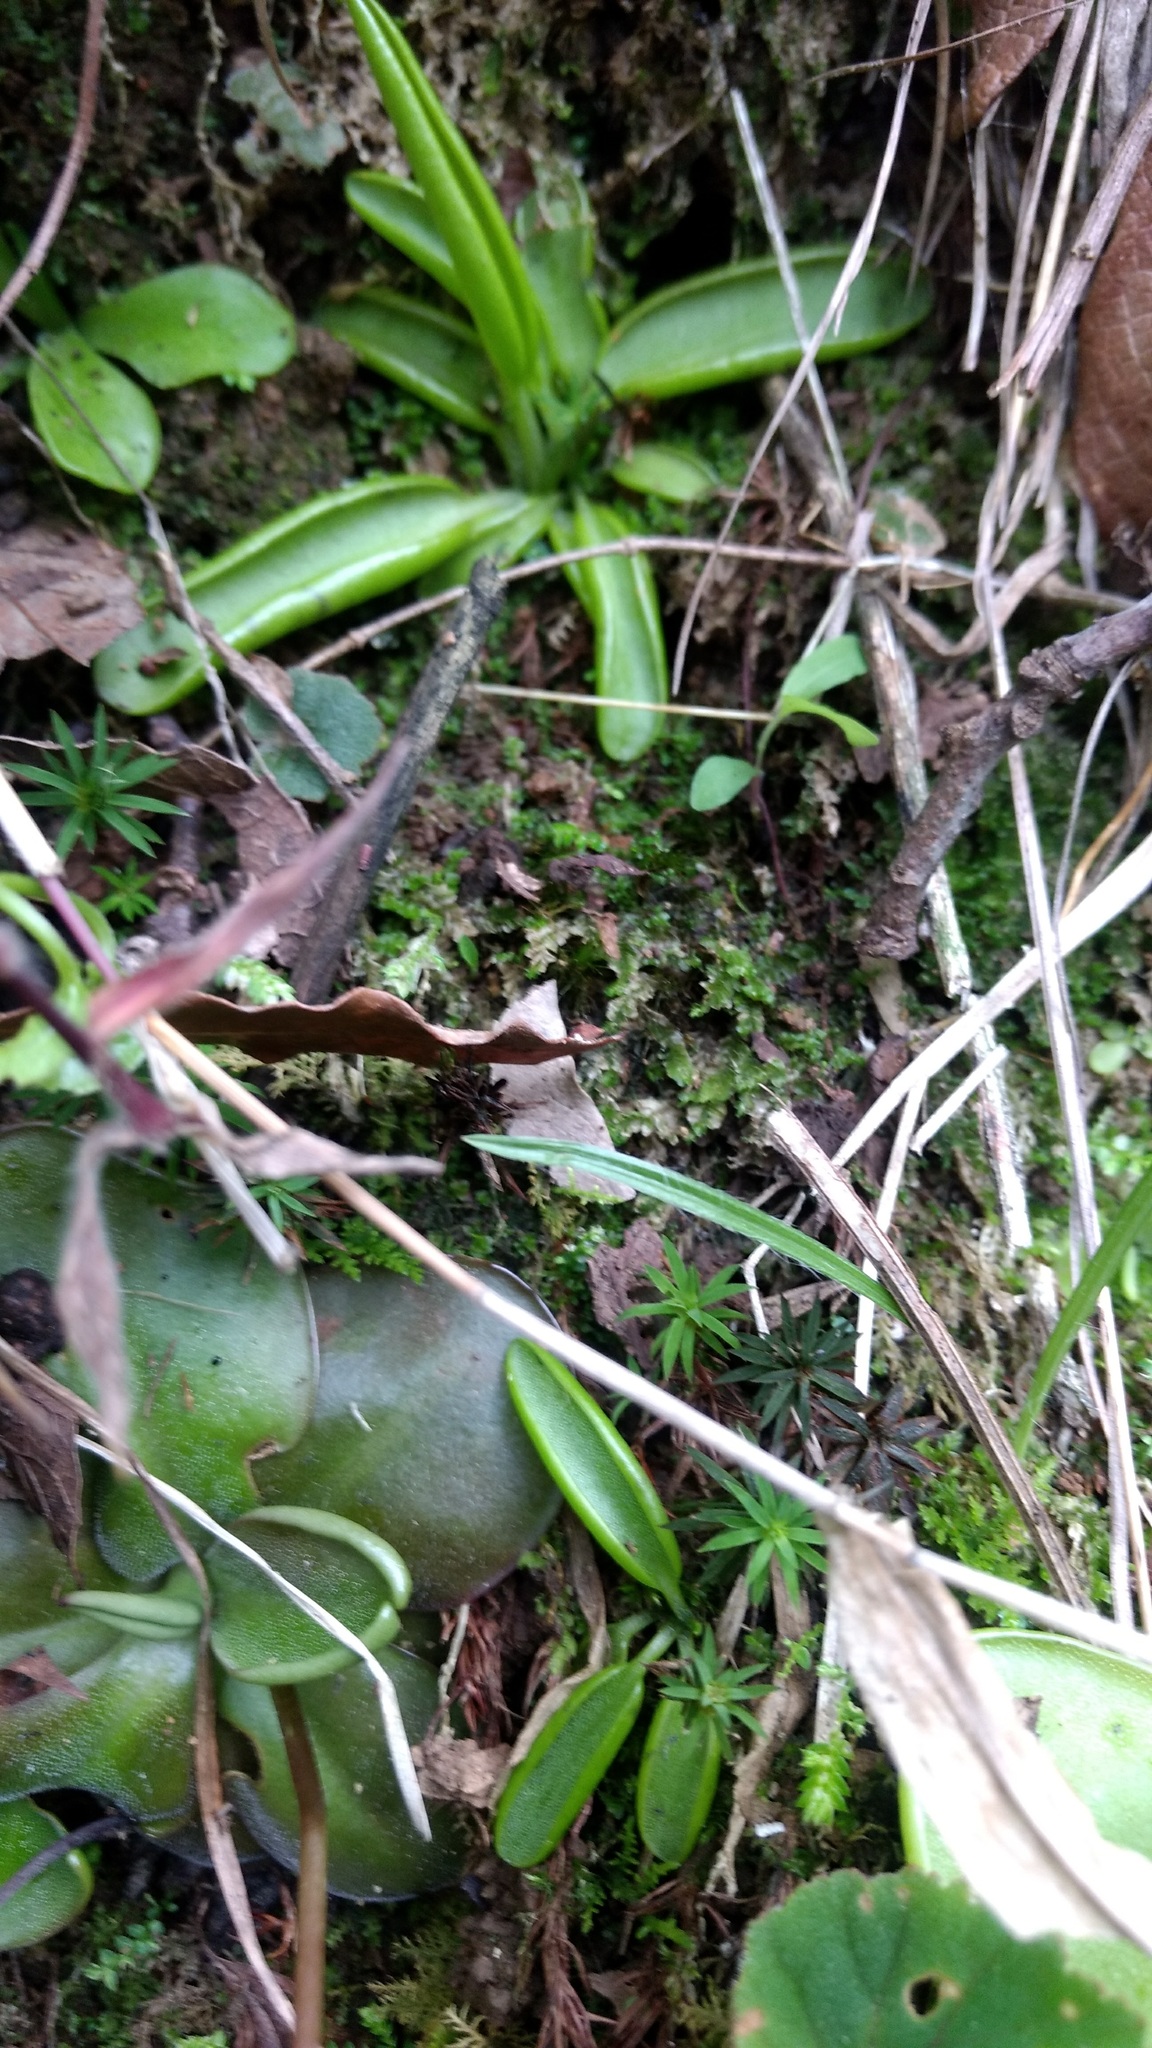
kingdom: Plantae
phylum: Tracheophyta
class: Magnoliopsida
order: Lamiales
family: Lentibulariaceae
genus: Pinguicula
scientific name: Pinguicula parvifolia
